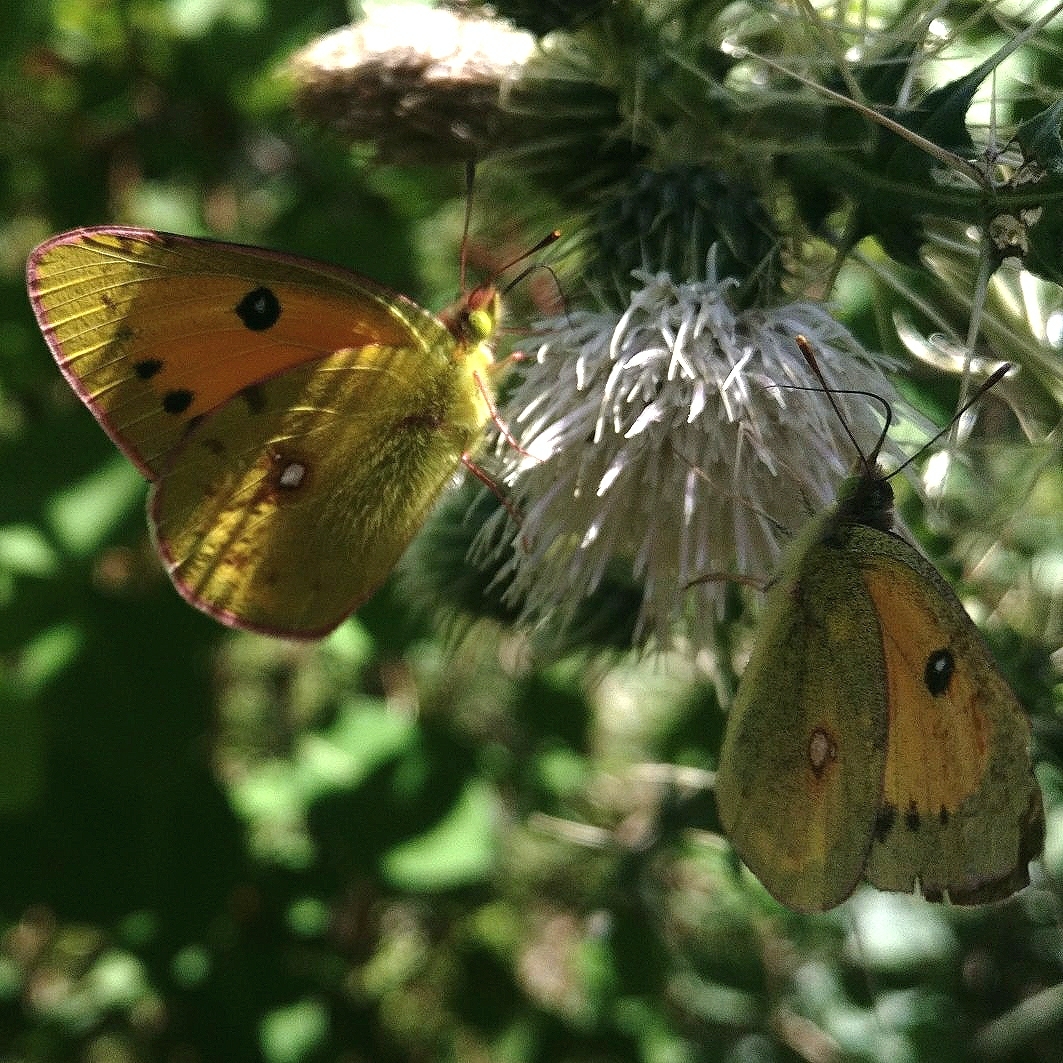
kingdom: Animalia
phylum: Arthropoda
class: Insecta
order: Lepidoptera
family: Pieridae
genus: Colias
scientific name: Colias fieldii
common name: Dark clouded yellow
